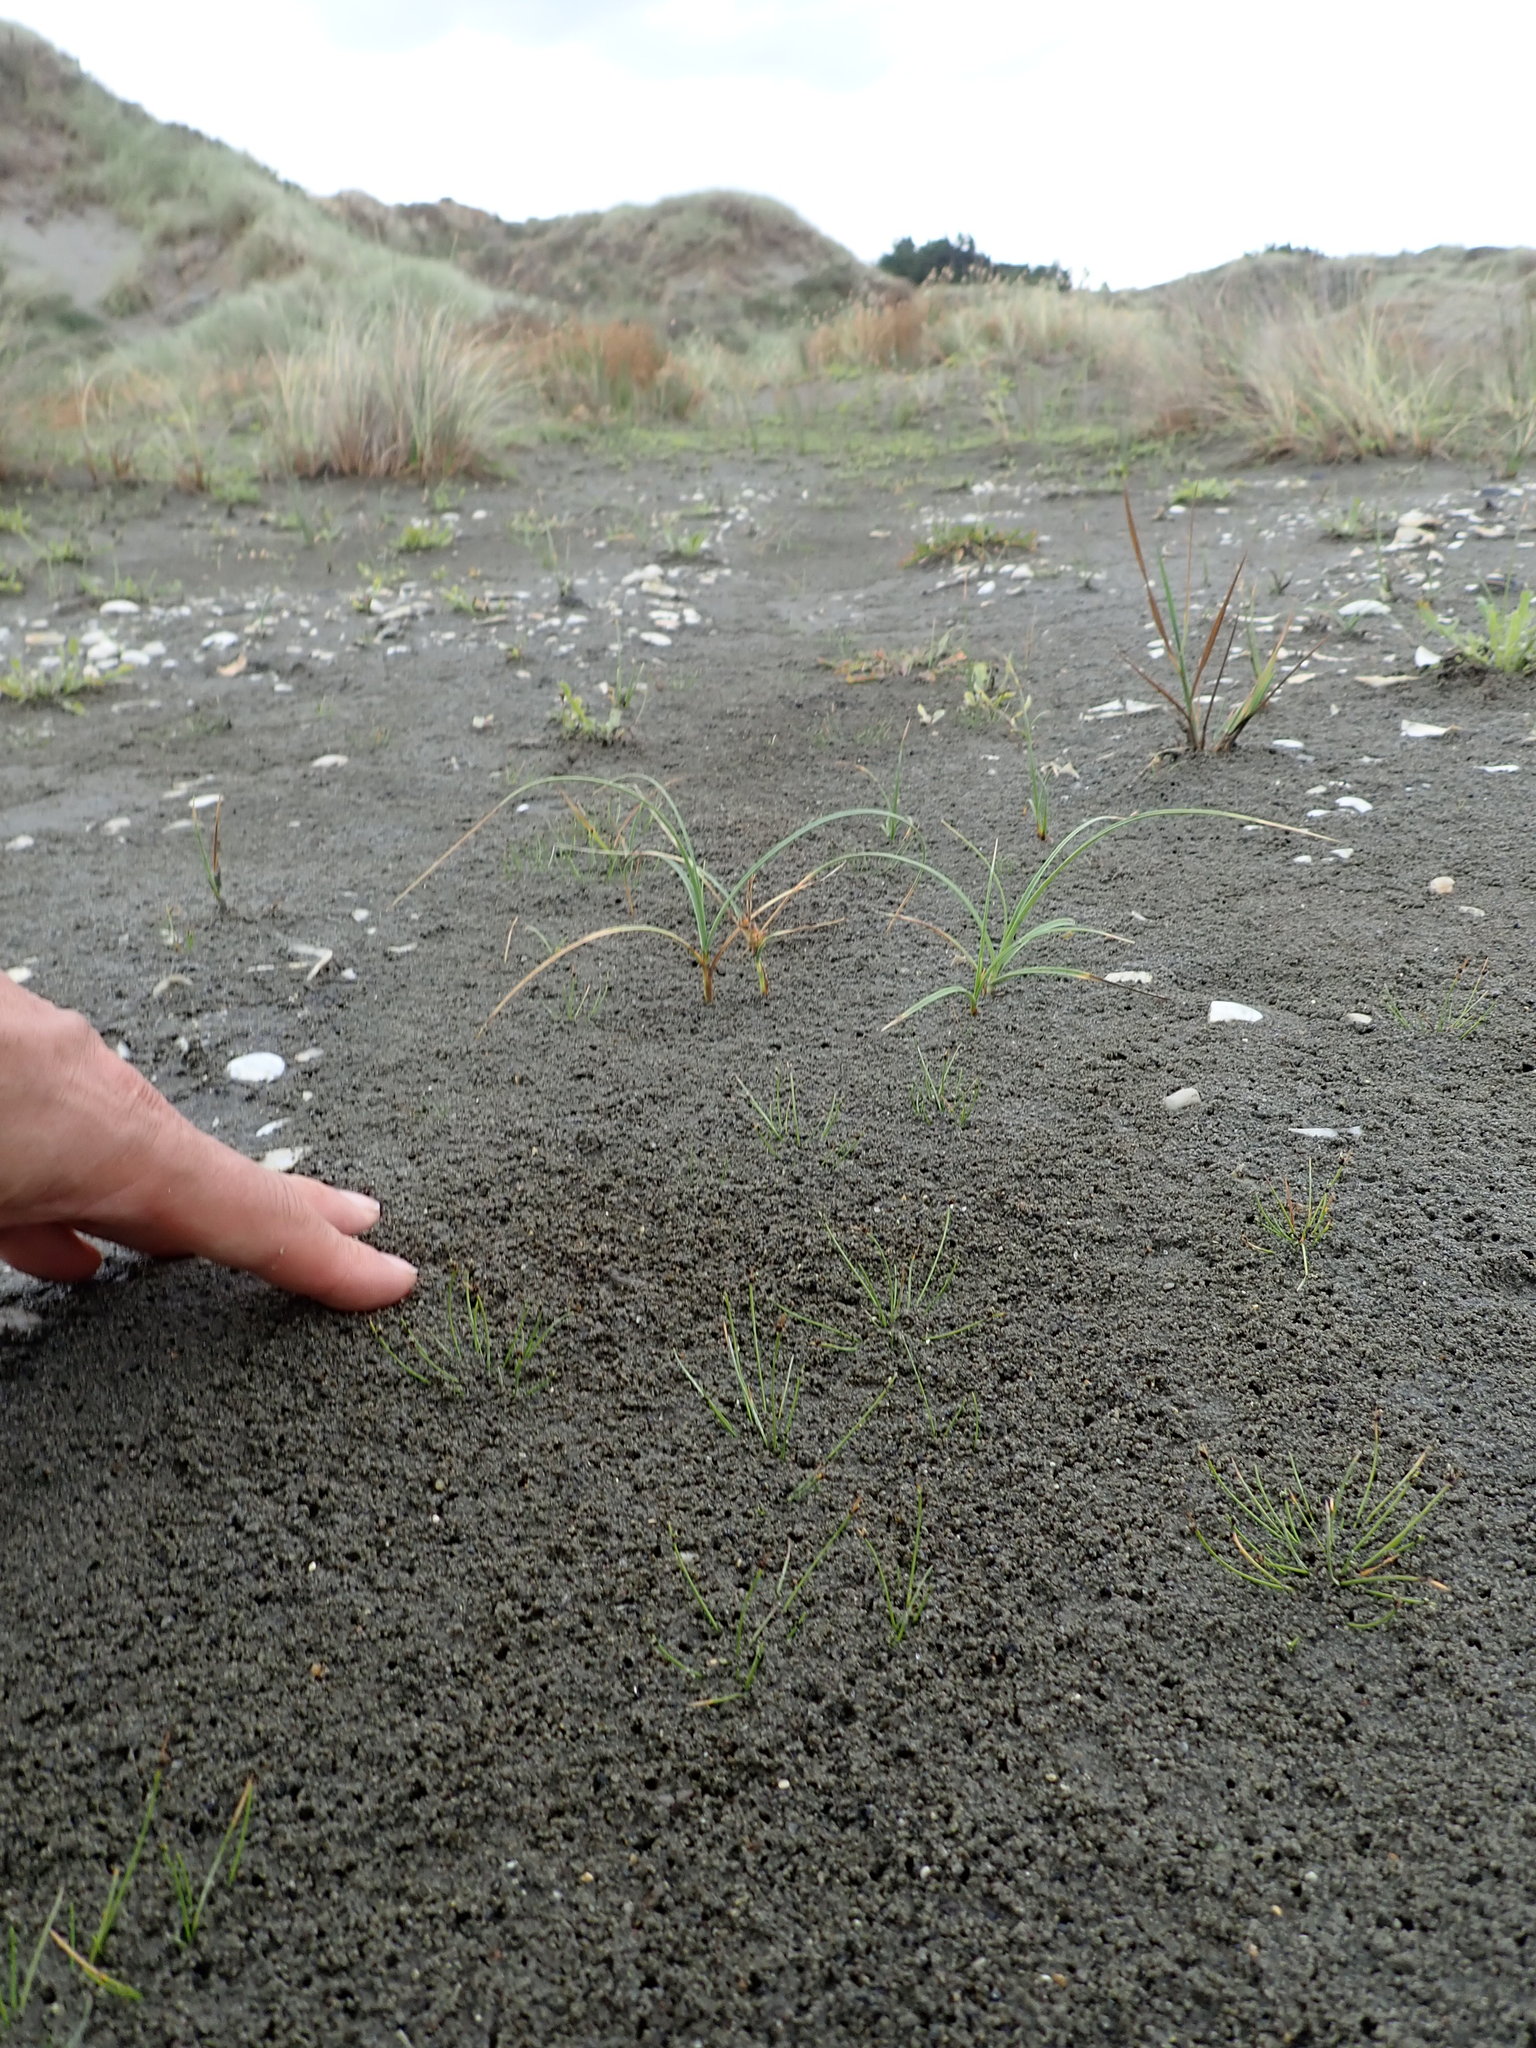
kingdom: Plantae
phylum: Tracheophyta
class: Liliopsida
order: Poales
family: Cyperaceae
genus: Carex
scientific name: Carex pumila
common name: Dwarf sedge
